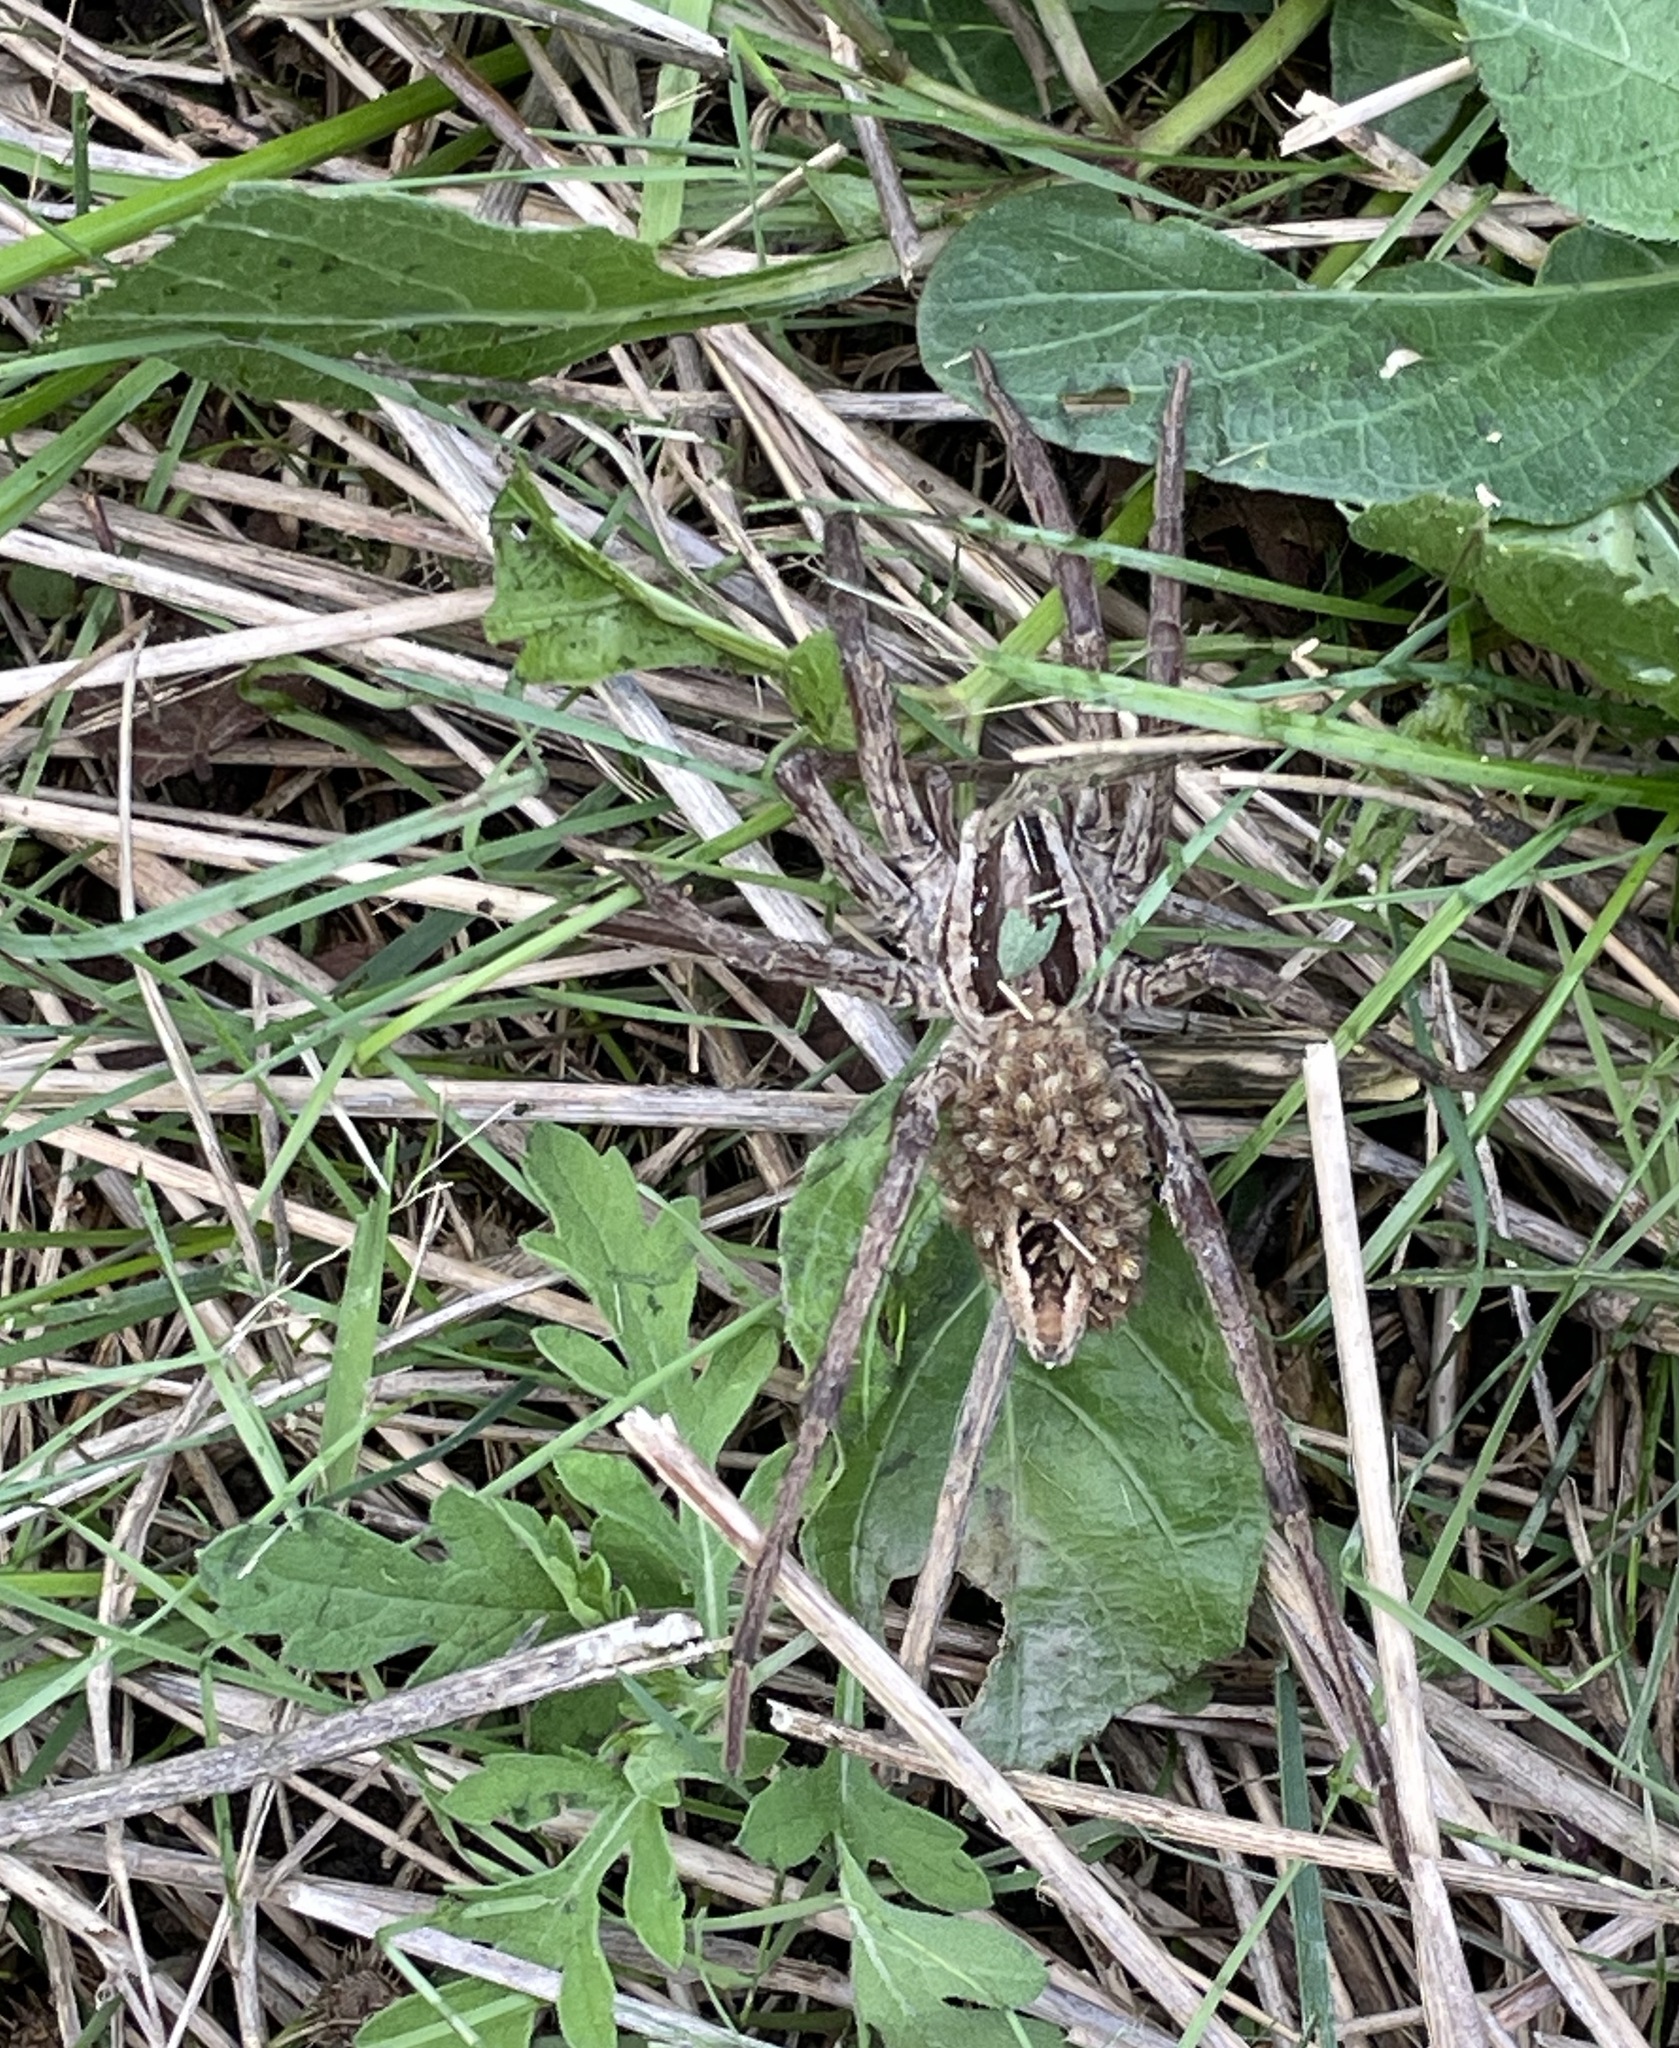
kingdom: Animalia
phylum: Arthropoda
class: Arachnida
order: Araneae
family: Lycosidae
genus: Rabidosa
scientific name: Rabidosa rabida
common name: Rabid wolf spider
